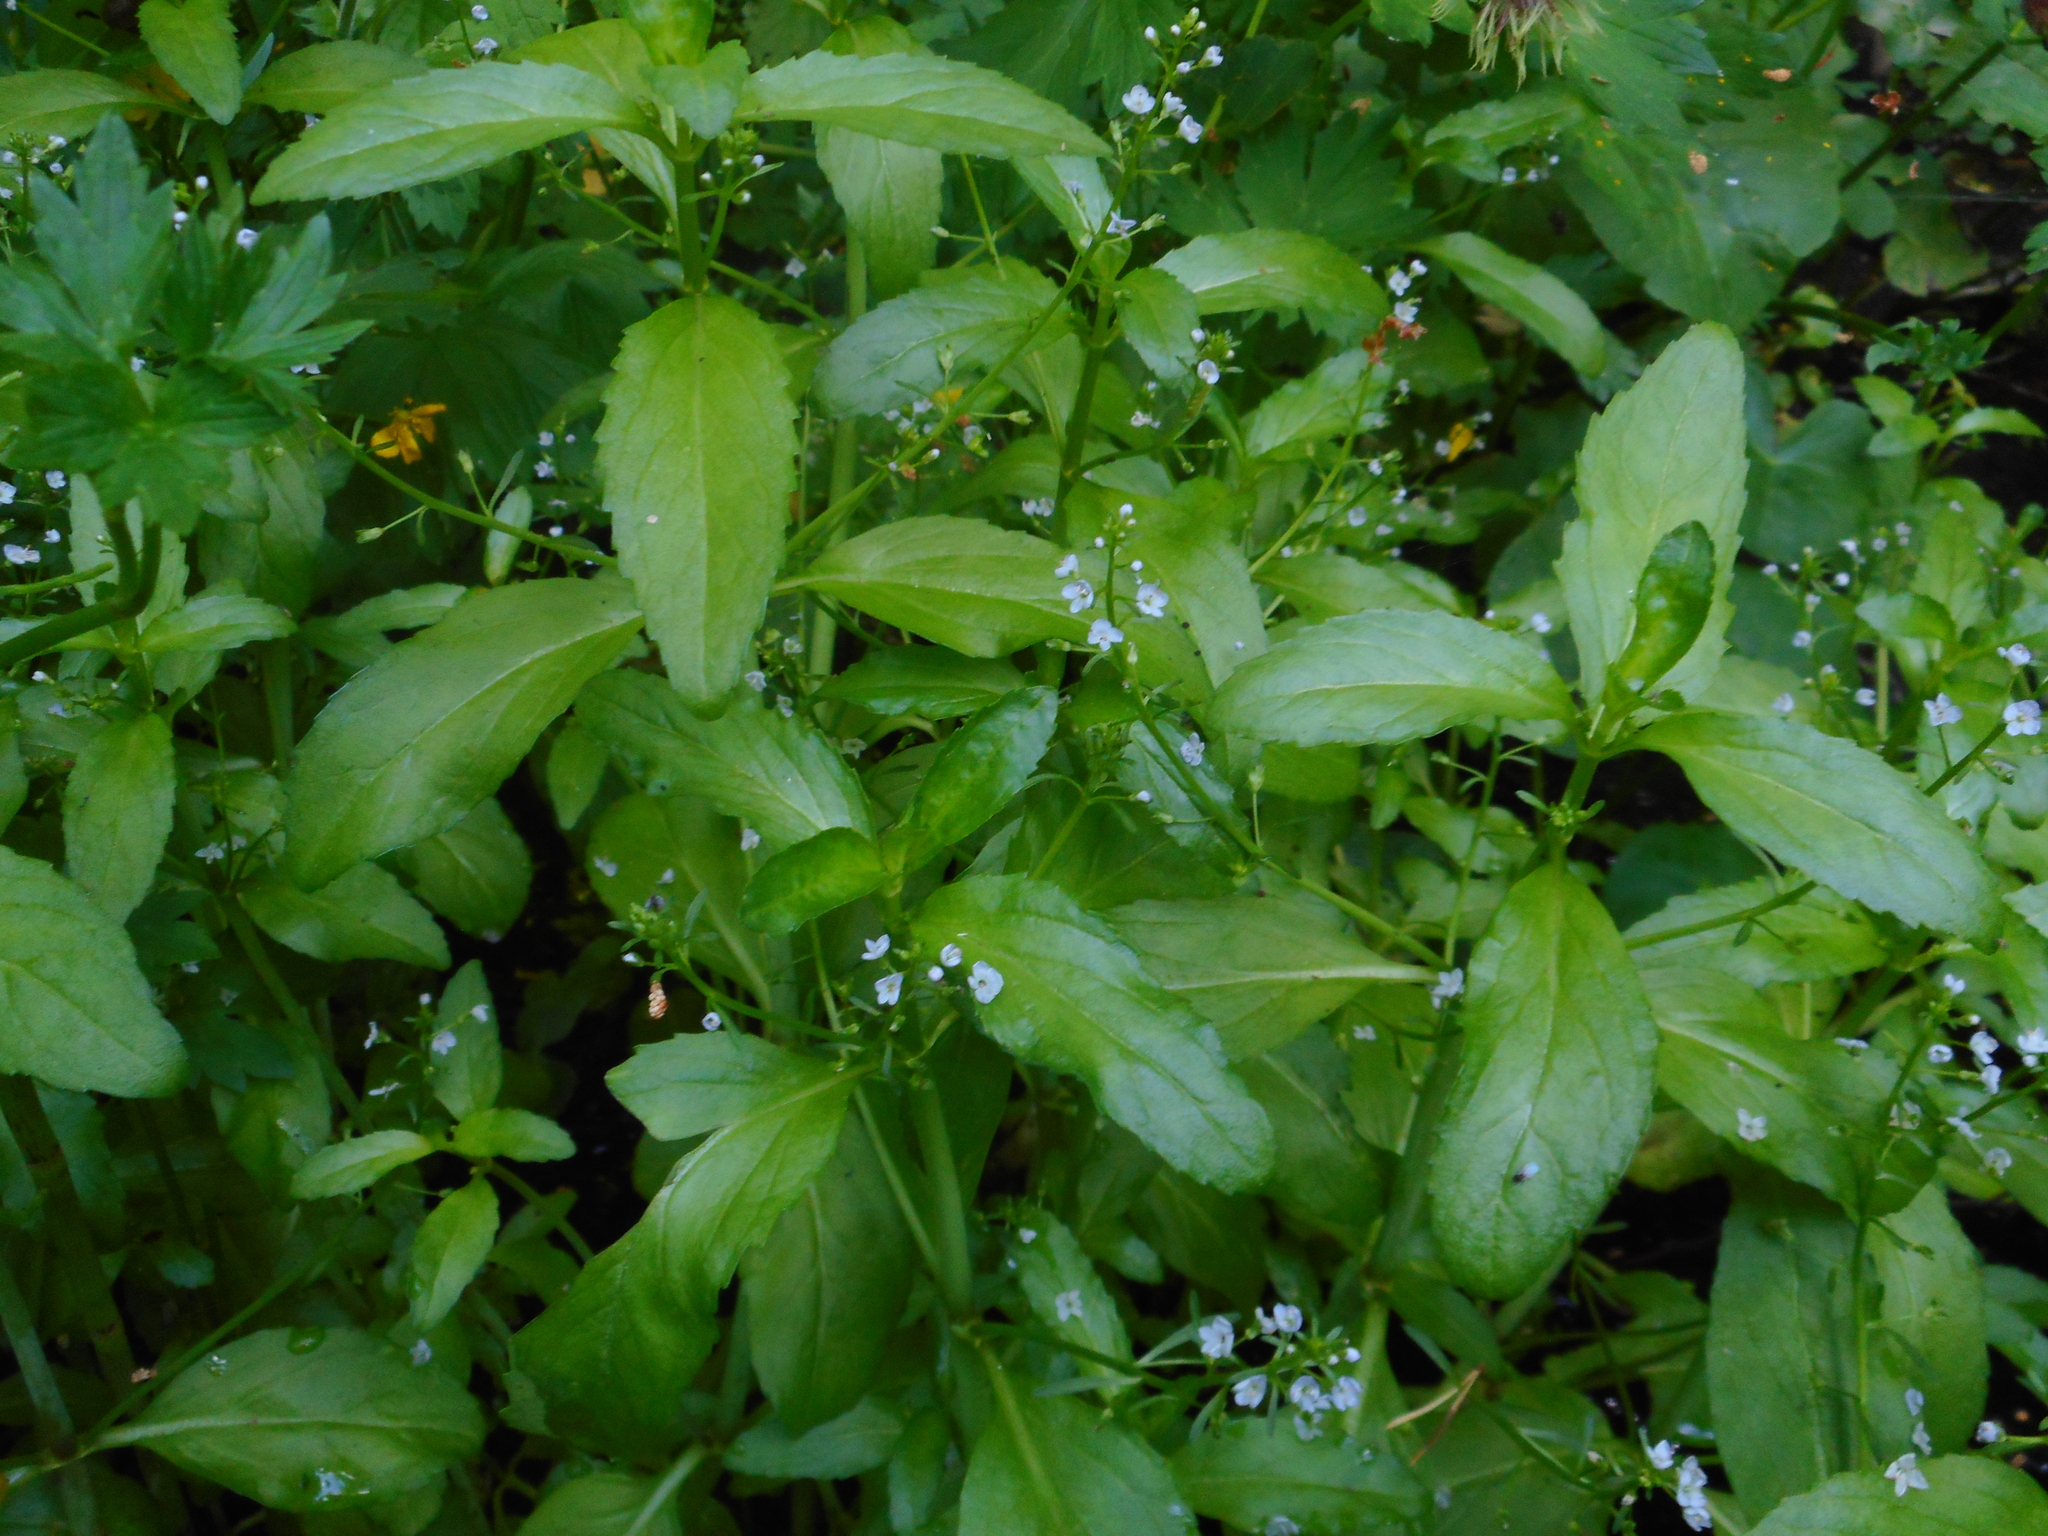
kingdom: Plantae
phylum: Tracheophyta
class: Magnoliopsida
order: Lamiales
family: Plantaginaceae
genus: Veronica
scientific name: Veronica beccabunga
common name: Brooklime
